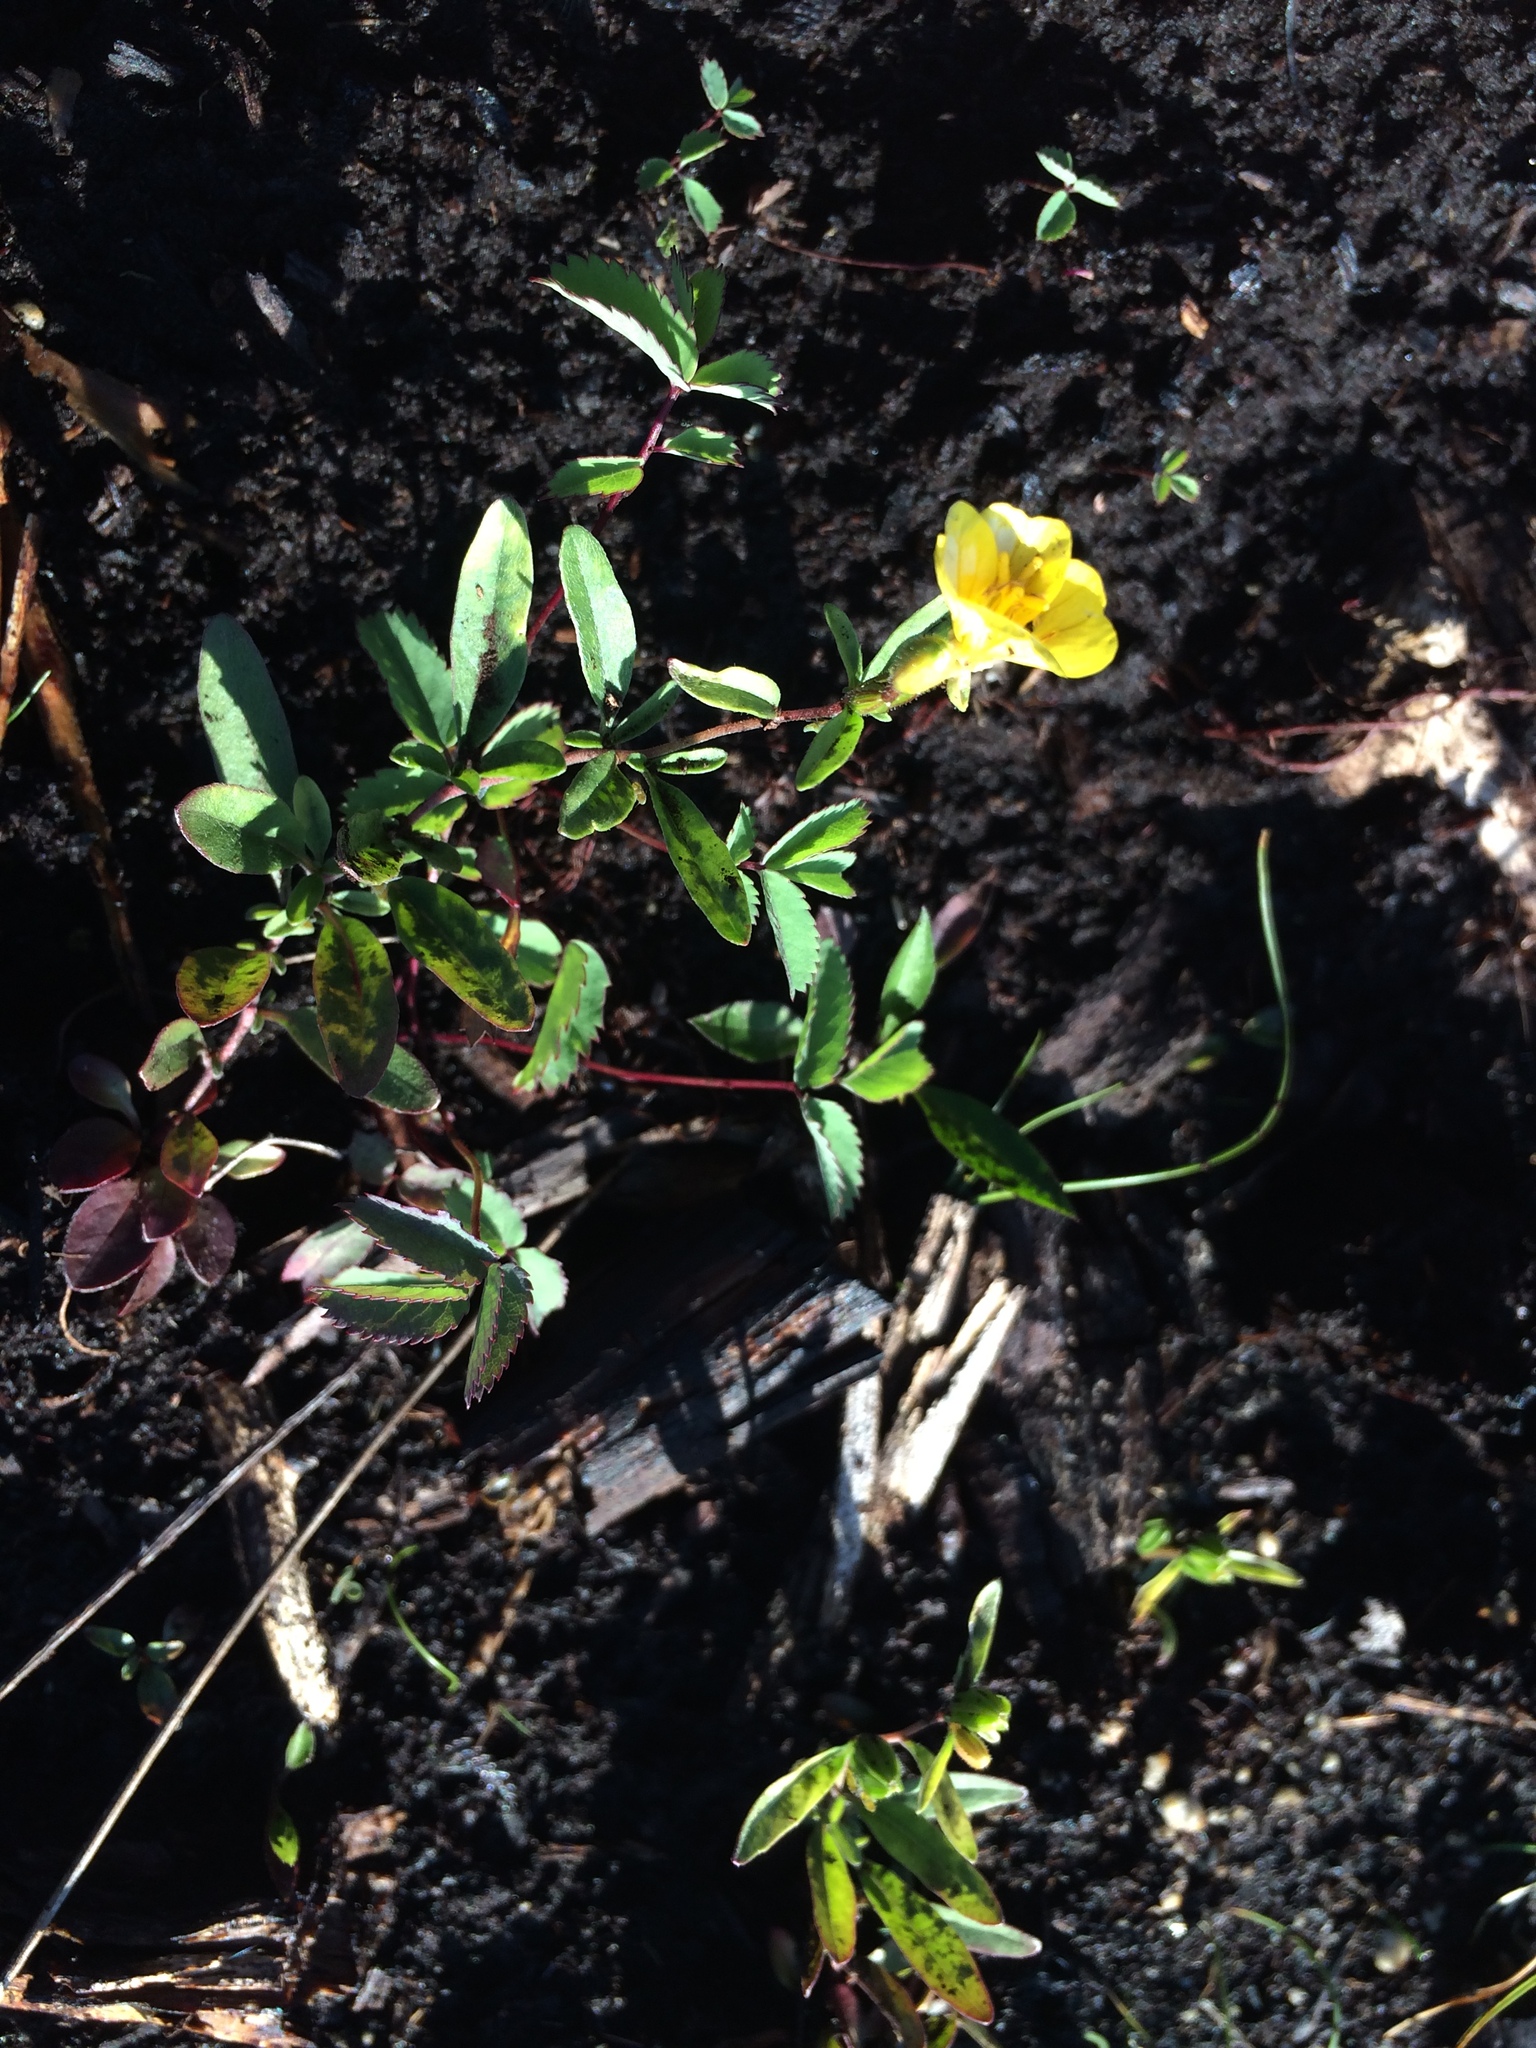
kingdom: Plantae
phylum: Tracheophyta
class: Magnoliopsida
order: Myrtales
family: Onagraceae
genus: Oenothera
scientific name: Oenothera perennis
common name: Small sundrops
